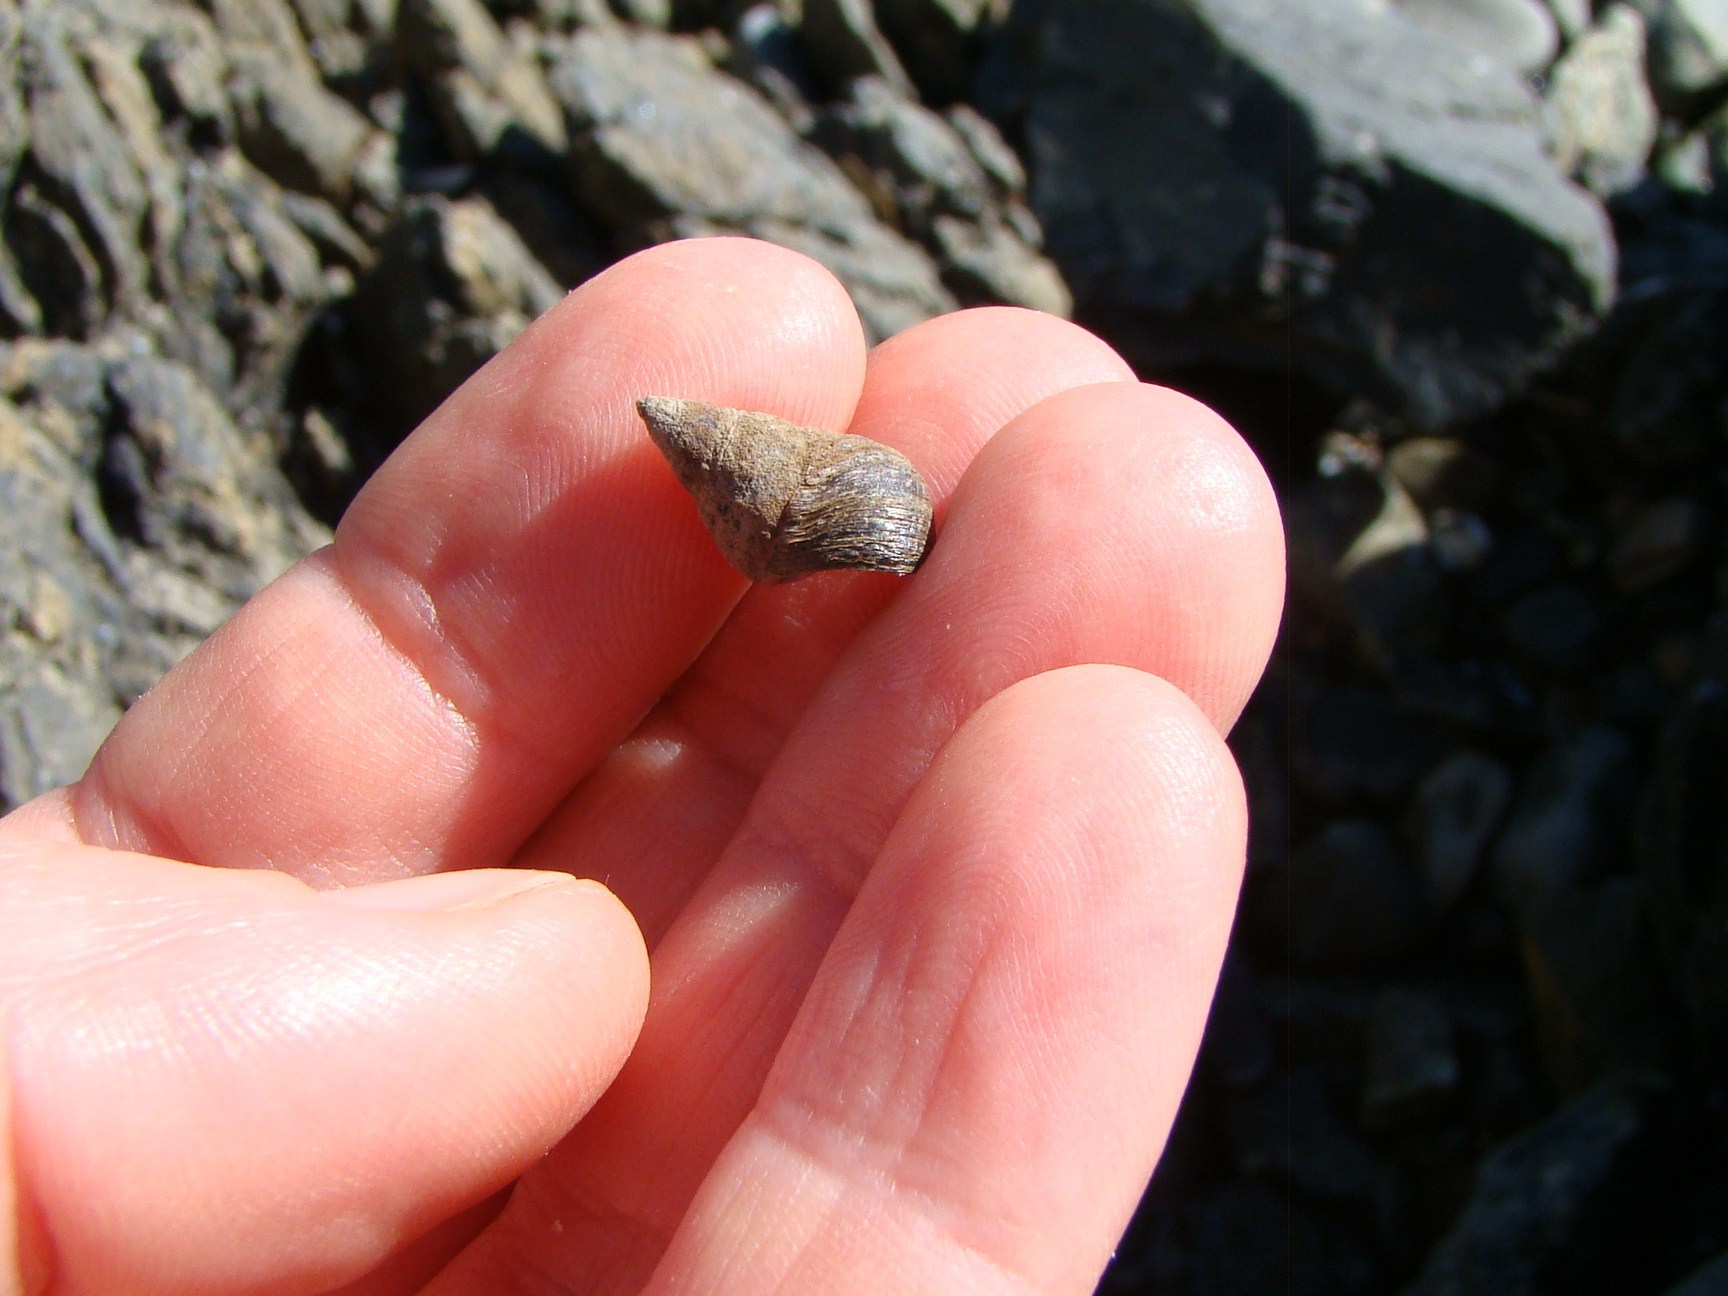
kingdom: Animalia
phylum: Mollusca
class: Gastropoda
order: Littorinimorpha
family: Littorinidae
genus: Austrolittorina
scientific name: Austrolittorina cincta
